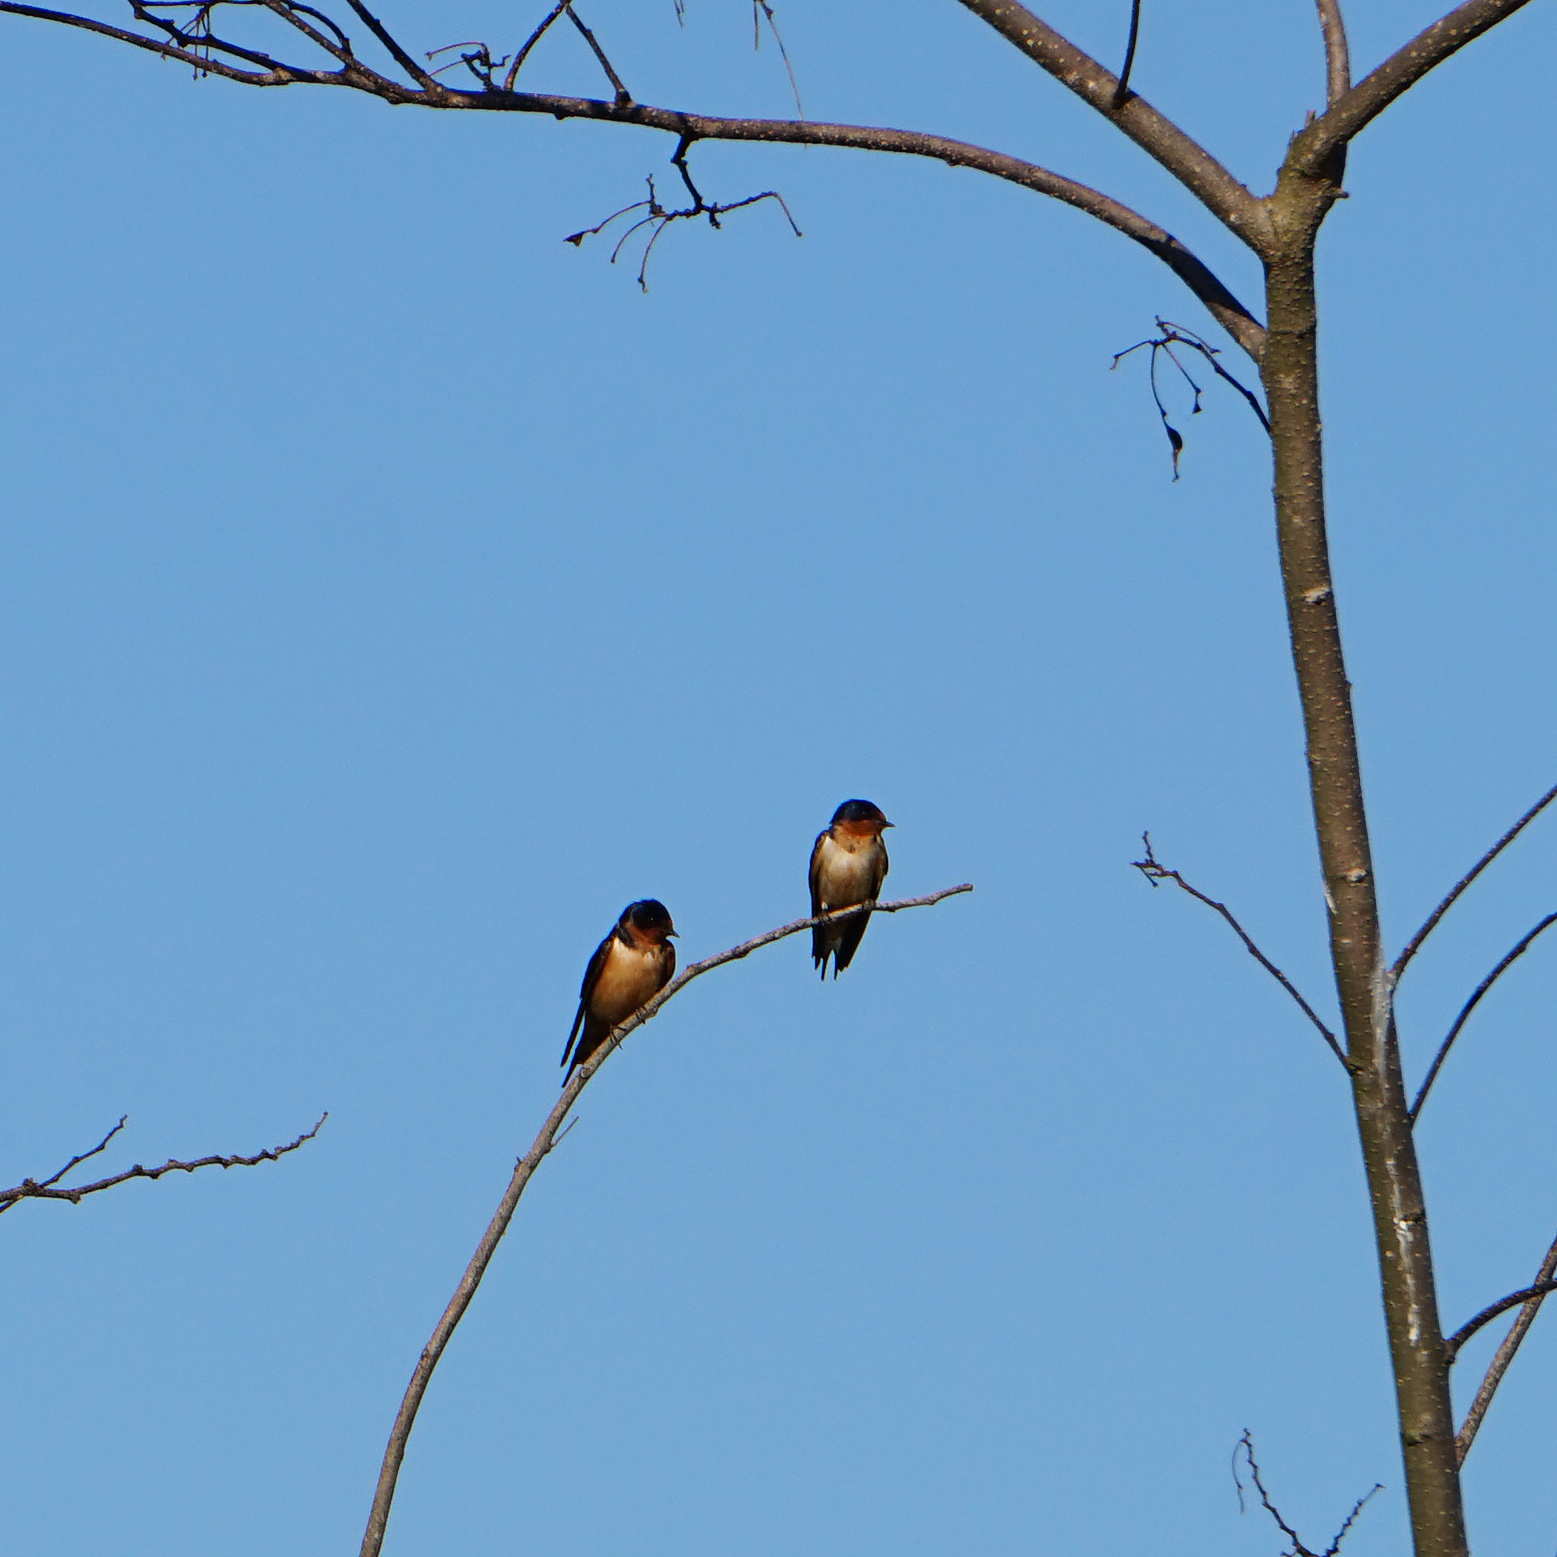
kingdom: Animalia
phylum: Chordata
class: Aves
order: Passeriformes
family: Hirundinidae
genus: Hirundo
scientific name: Hirundo rustica
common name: Barn swallow
